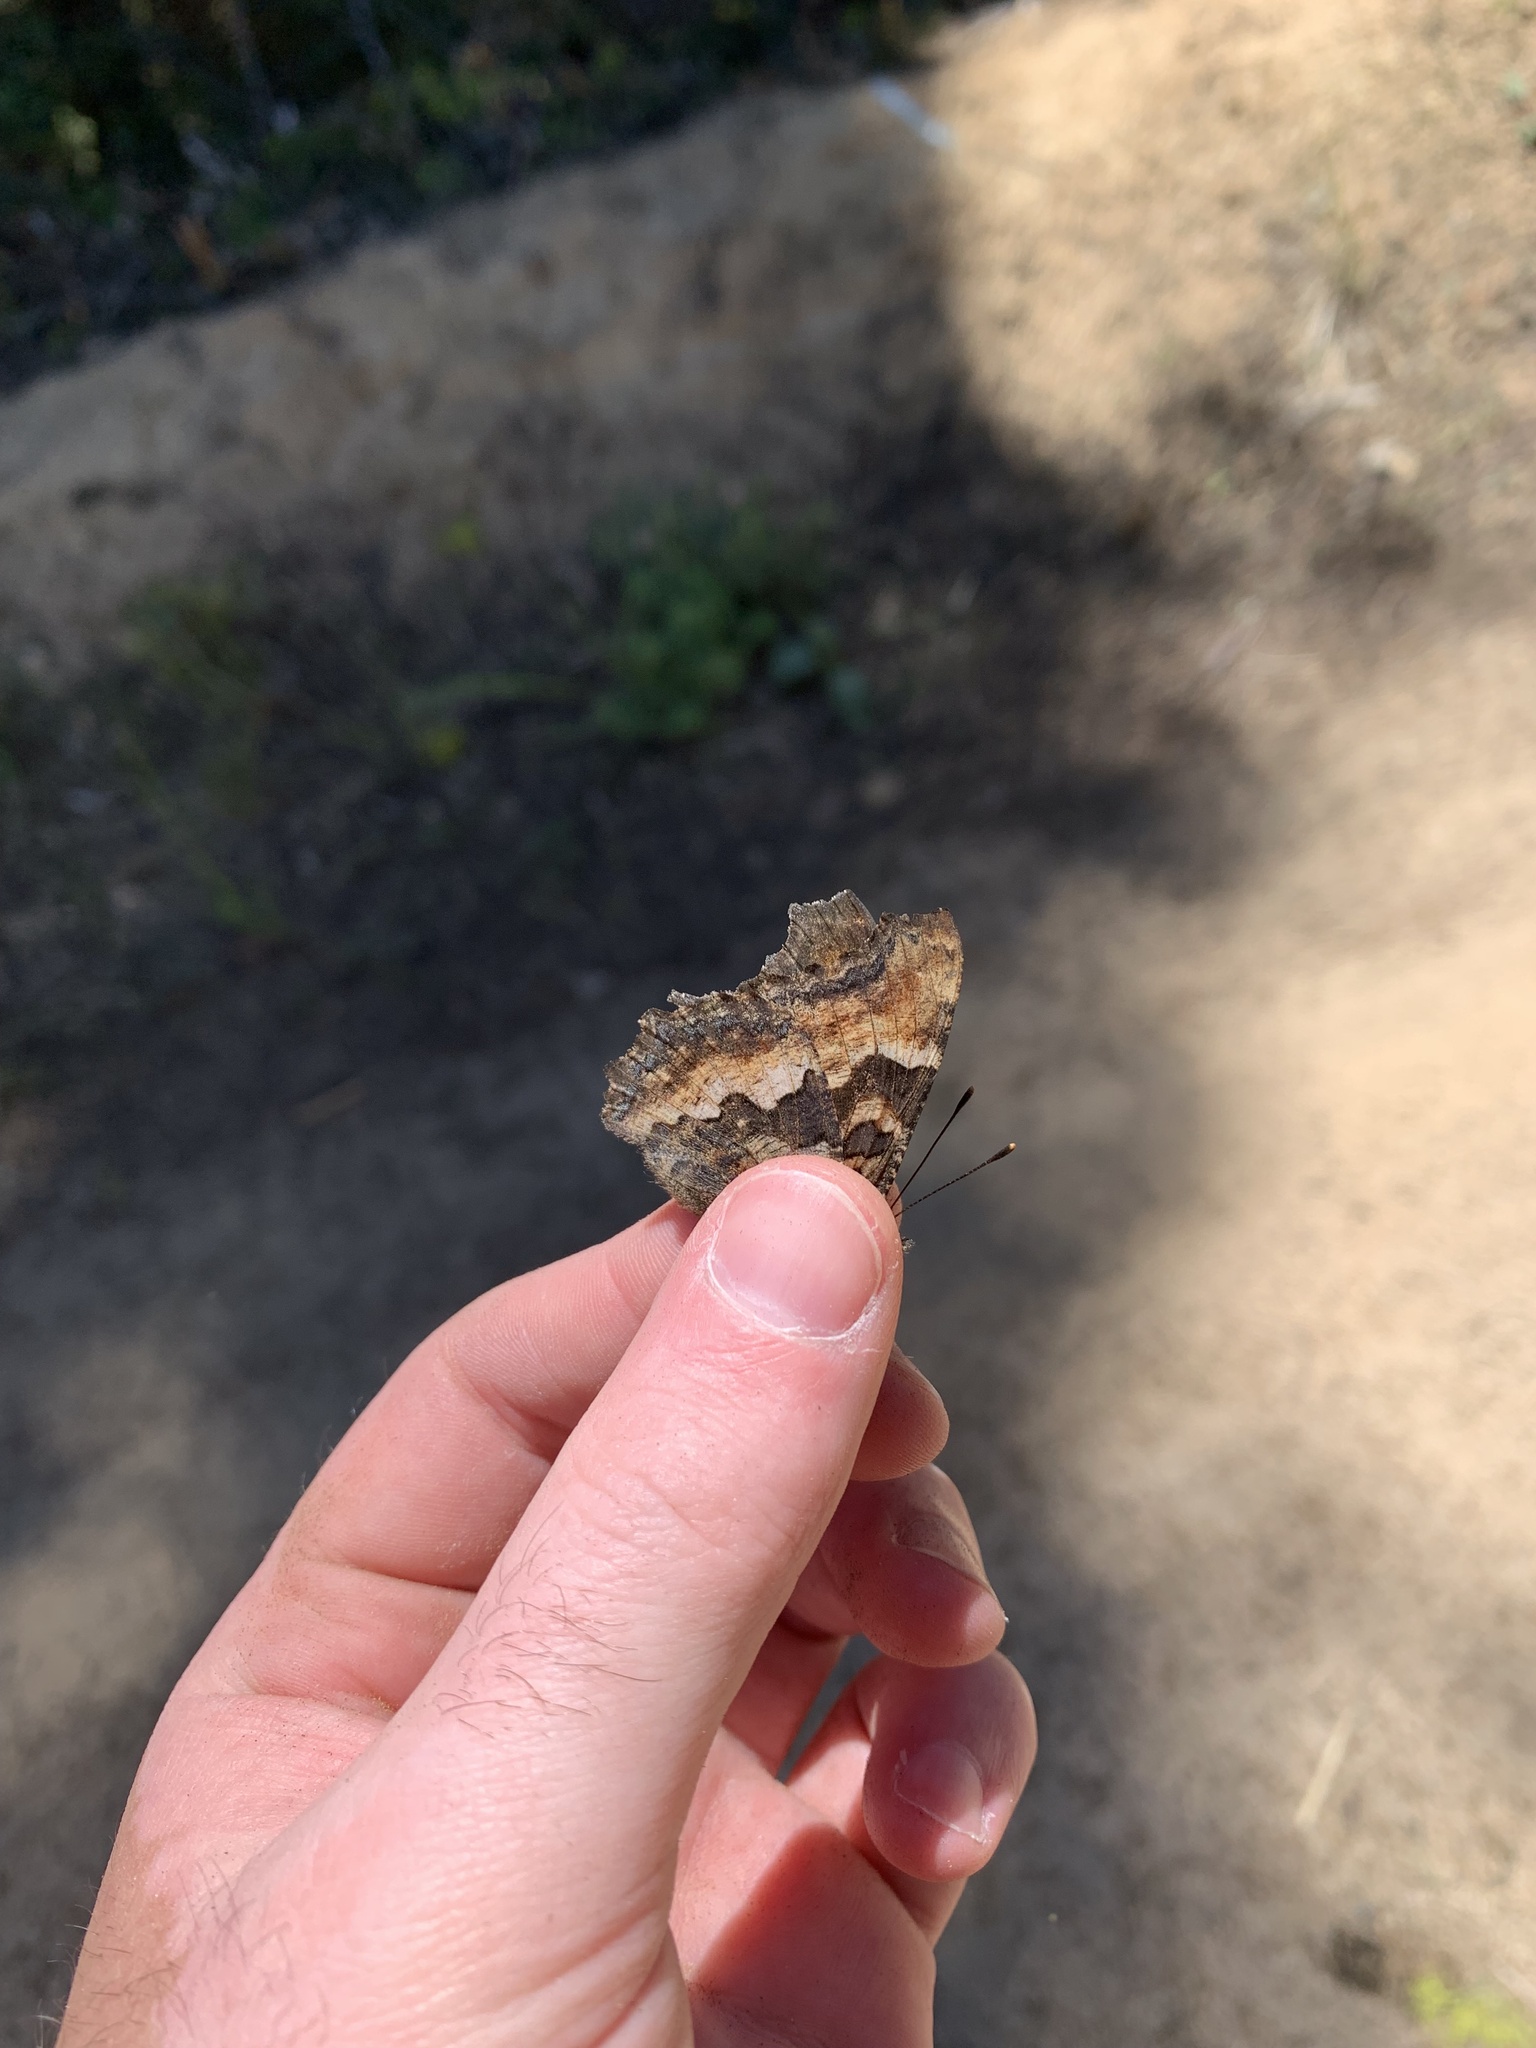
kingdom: Animalia
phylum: Arthropoda
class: Insecta
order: Lepidoptera
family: Nymphalidae
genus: Nymphalis
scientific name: Nymphalis californica
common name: California tortoiseshell
